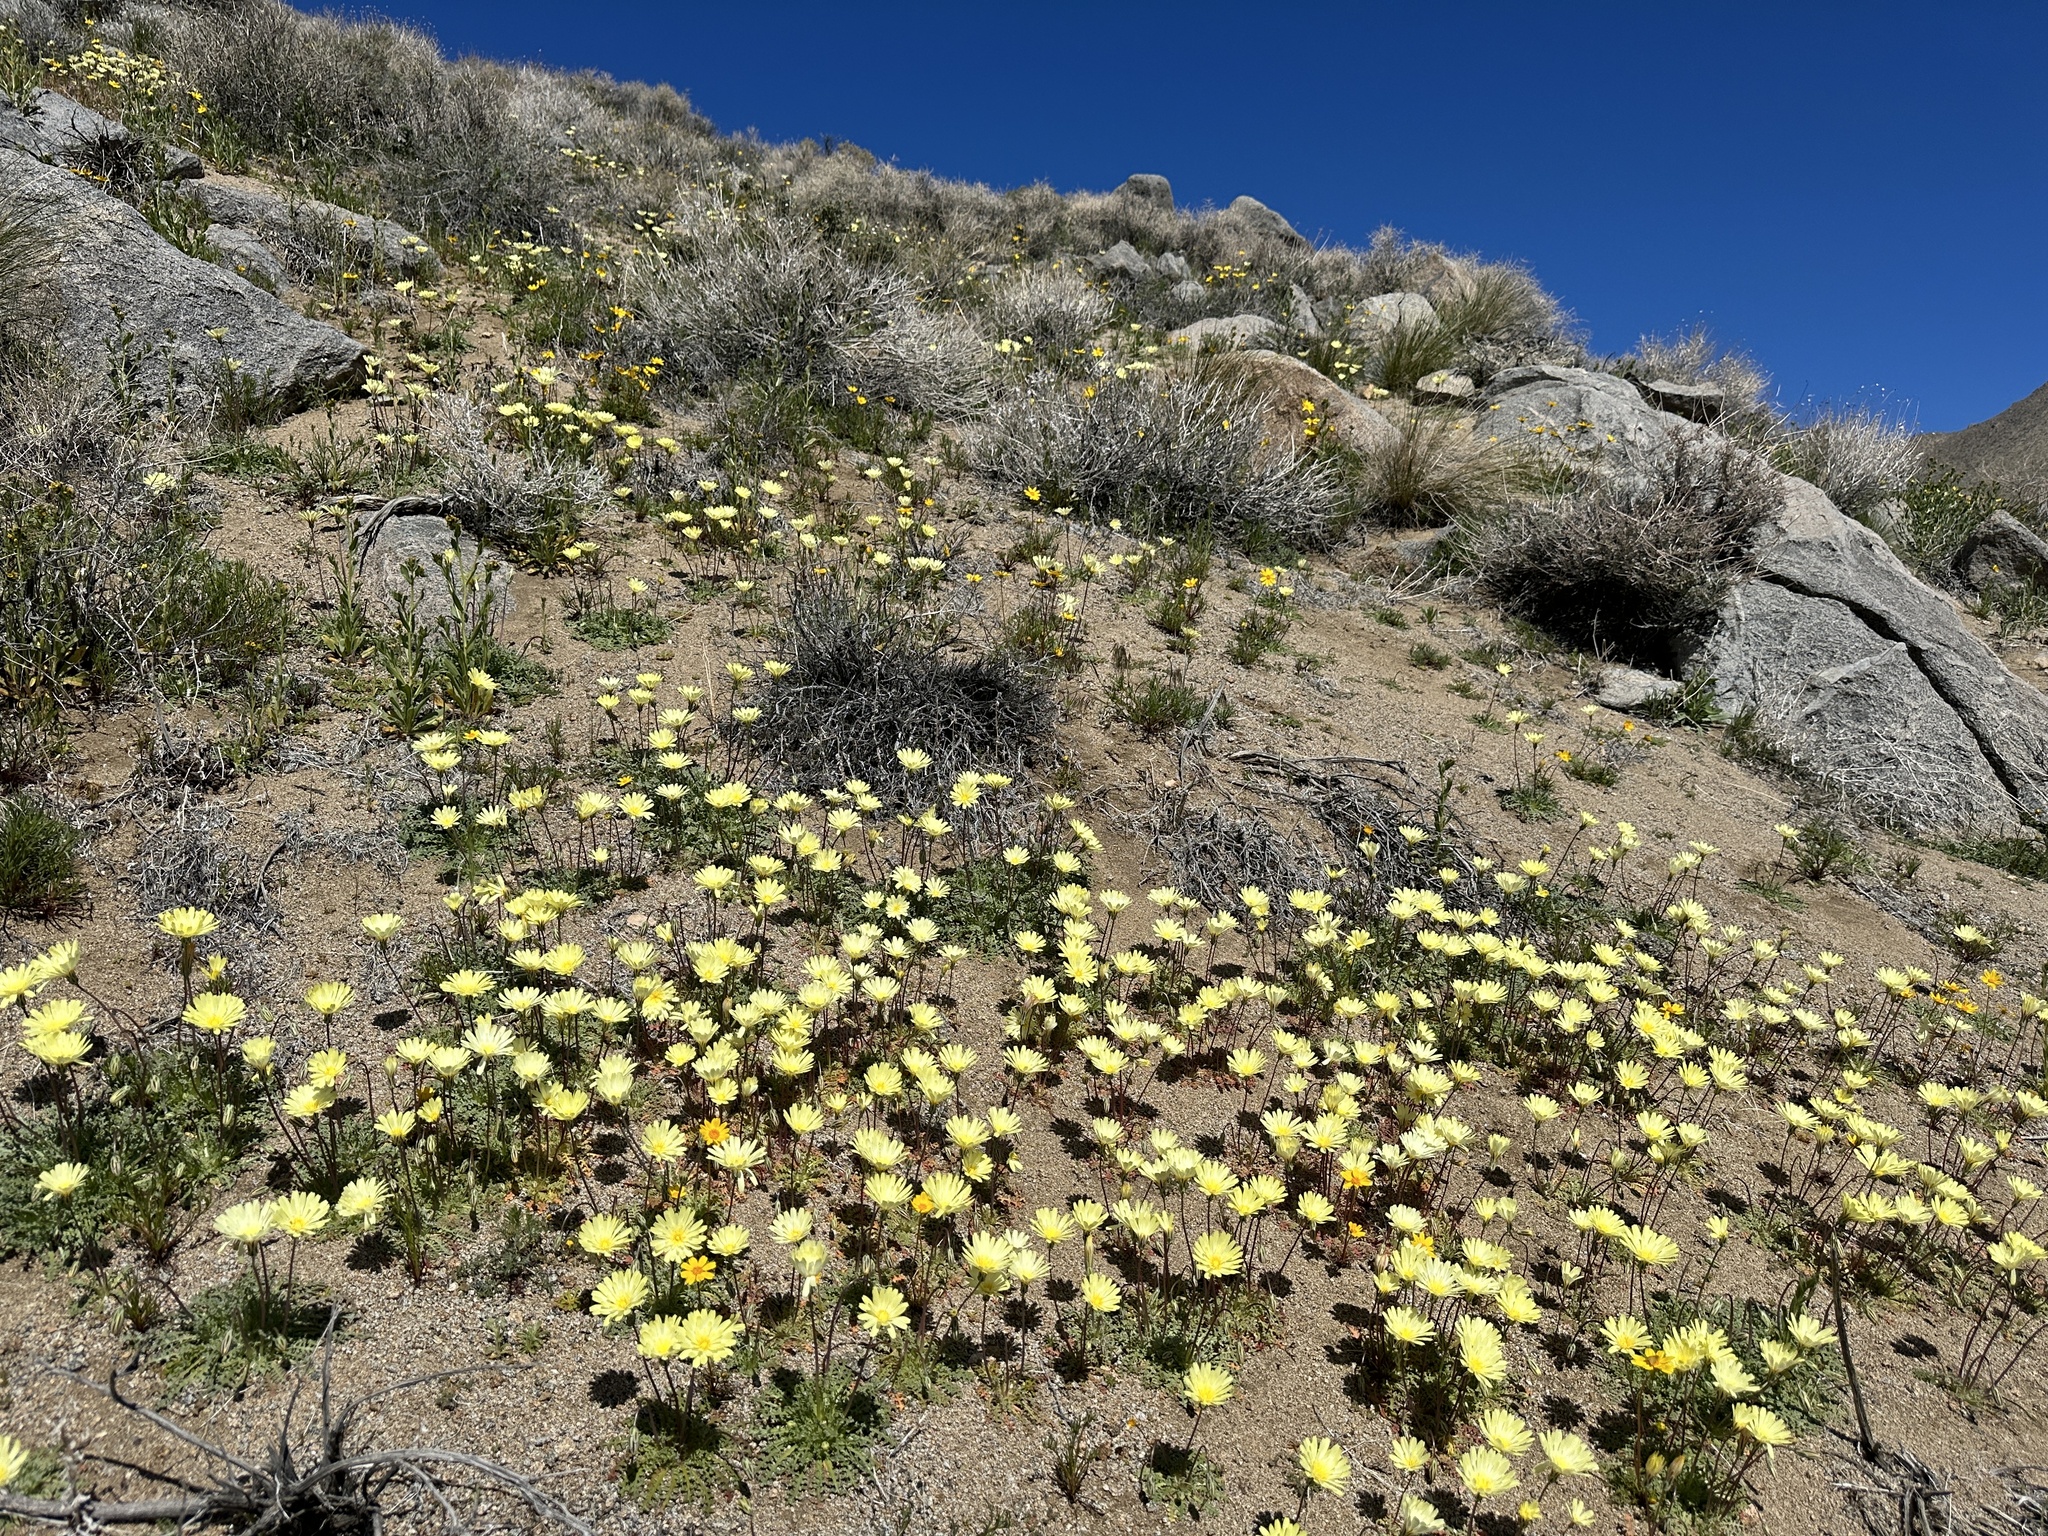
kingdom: Plantae
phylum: Tracheophyta
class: Magnoliopsida
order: Asterales
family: Asteraceae
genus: Anisocoma
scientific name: Anisocoma acaulis
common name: Scalebud
